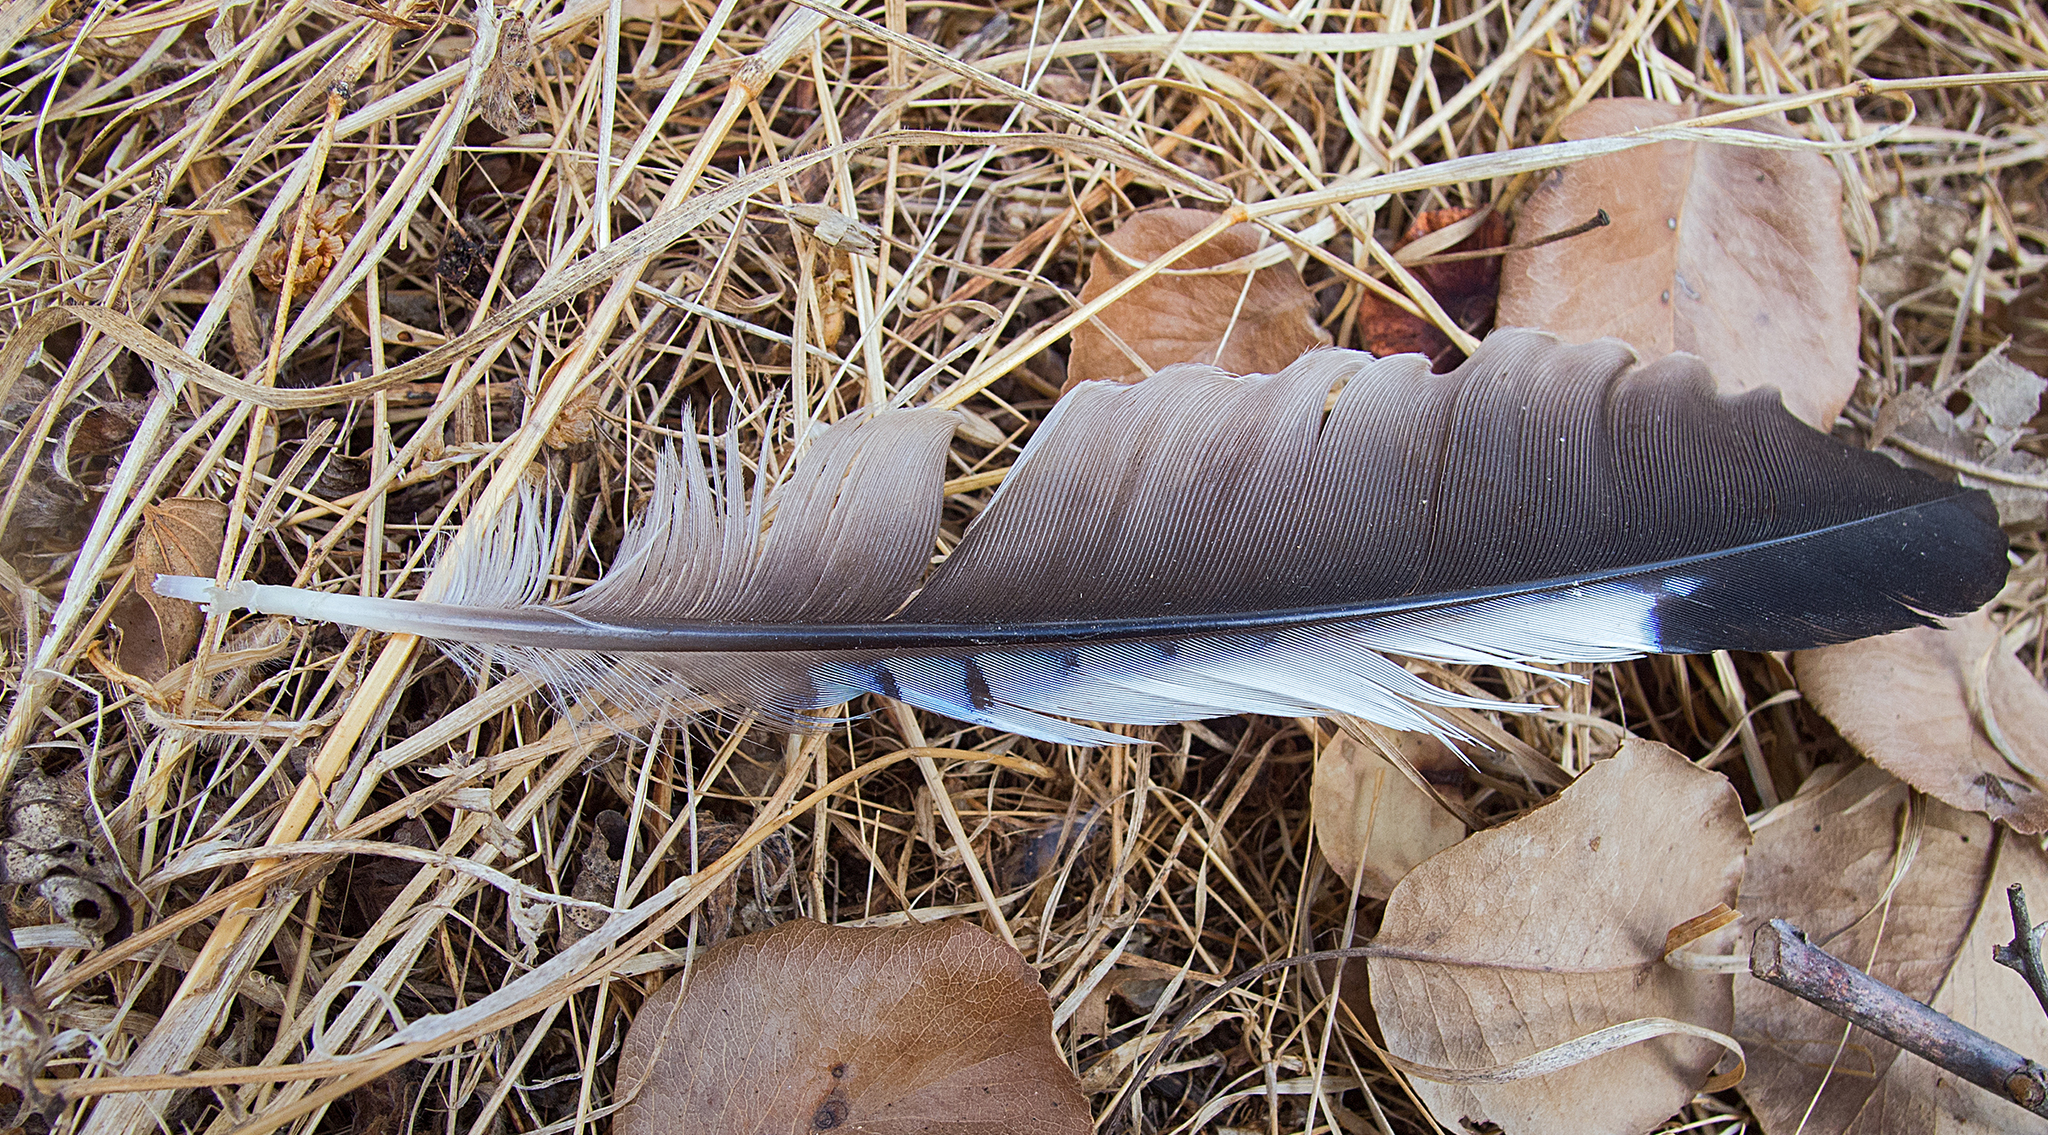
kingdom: Animalia
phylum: Chordata
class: Aves
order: Passeriformes
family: Corvidae
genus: Garrulus
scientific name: Garrulus glandarius
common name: Eurasian jay
